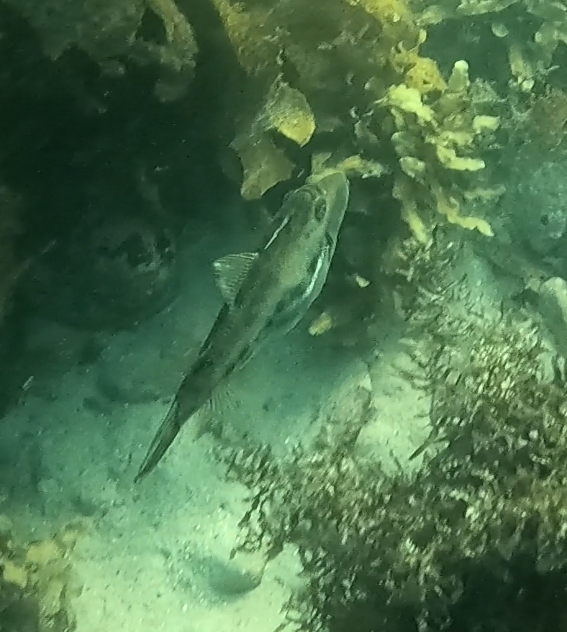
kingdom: Animalia
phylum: Chordata
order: Tetraodontiformes
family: Monacanthidae
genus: Scobinichthys
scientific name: Scobinichthys granulatus
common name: Rough leatherjacket
